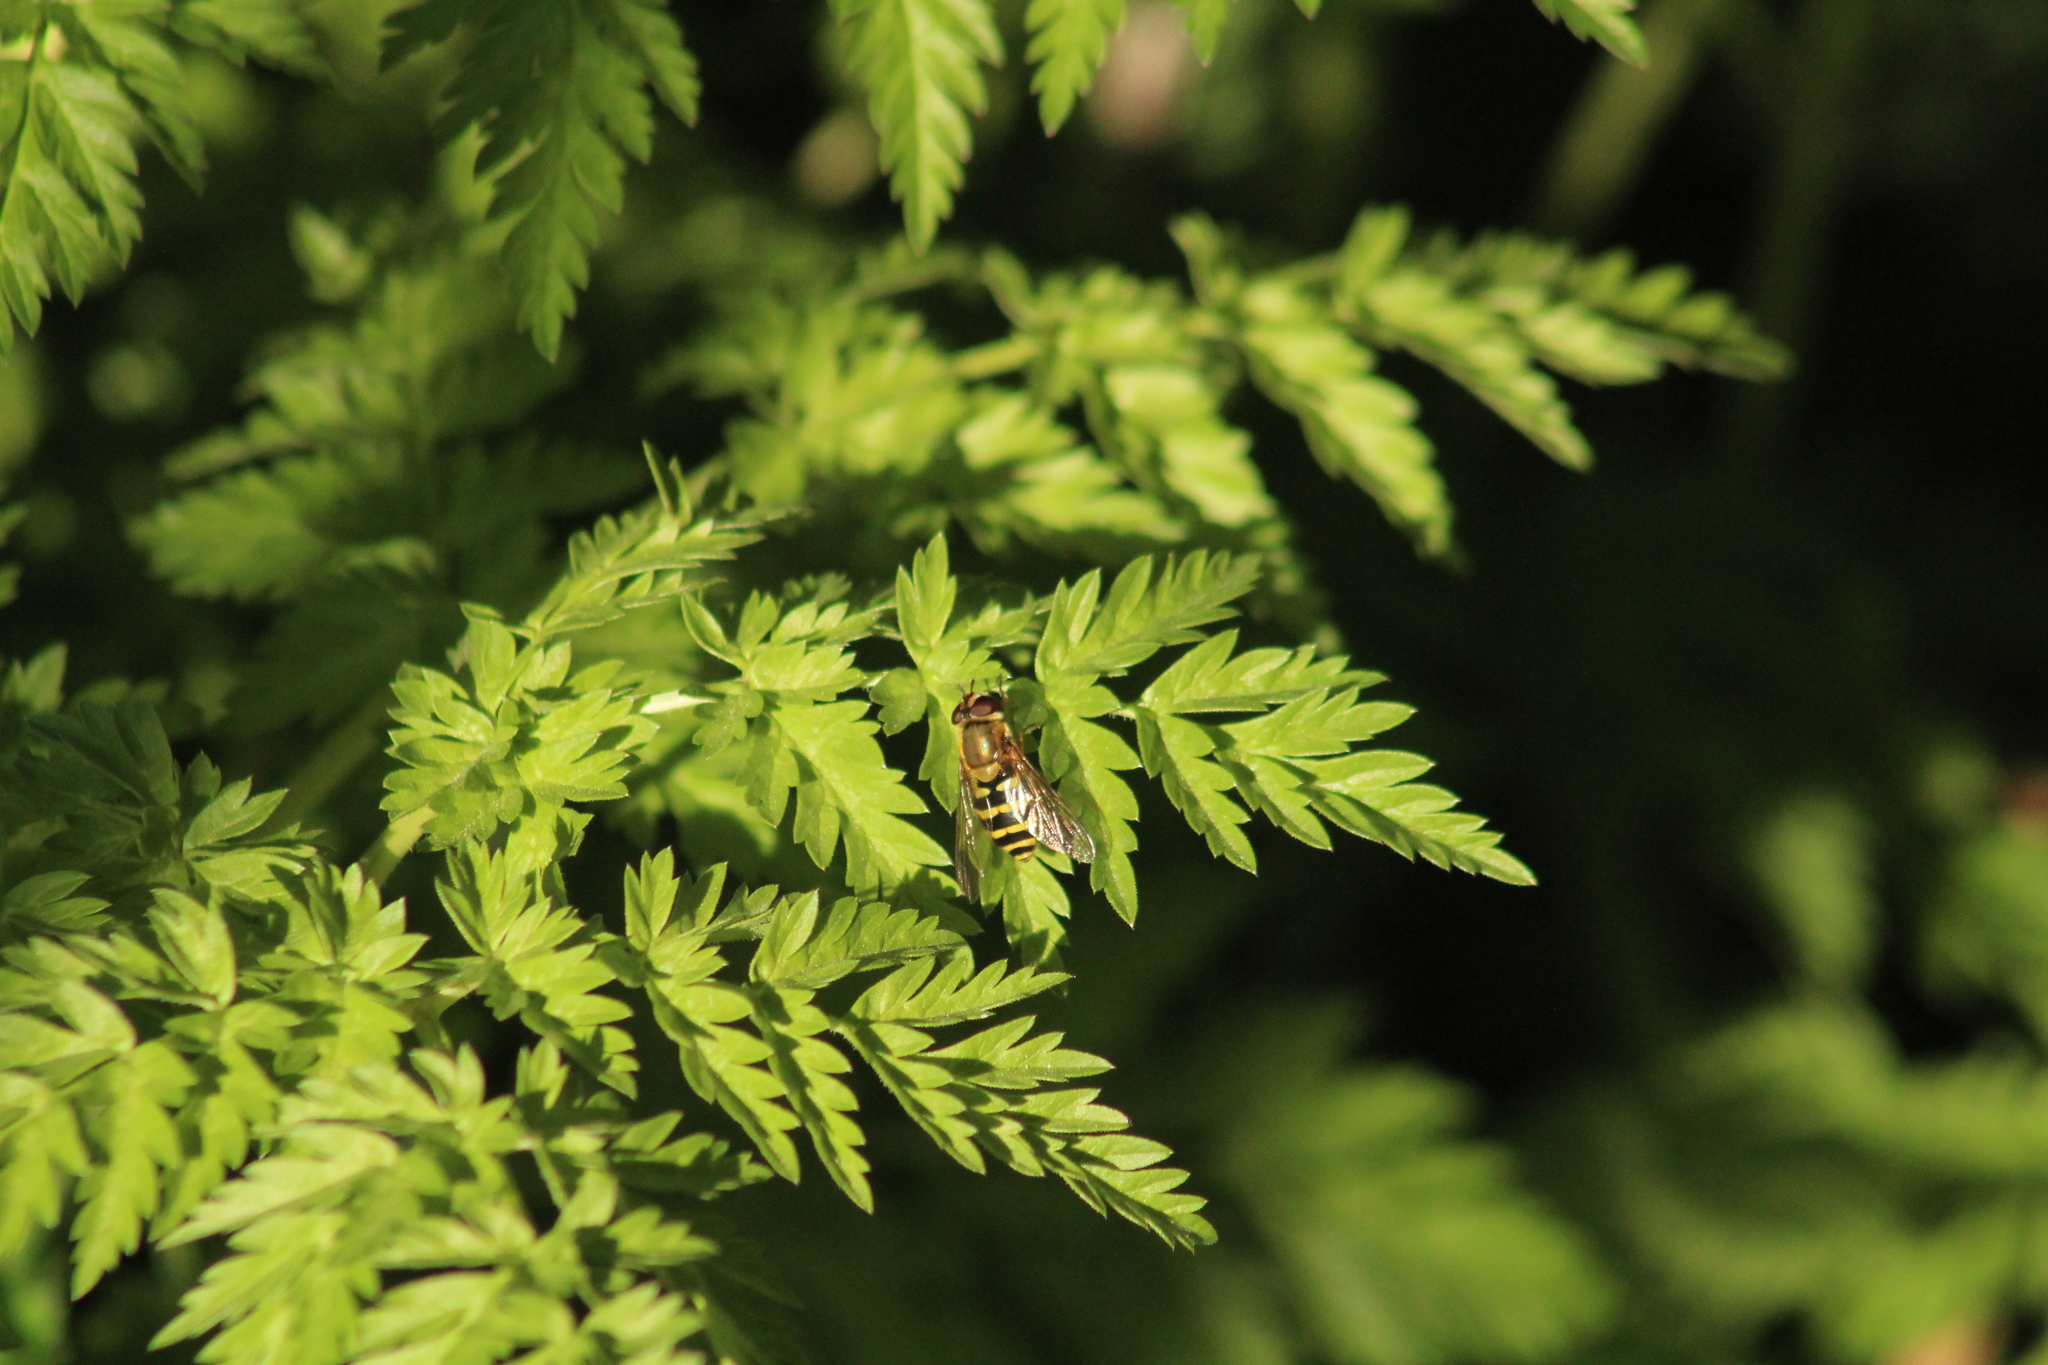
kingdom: Animalia
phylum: Arthropoda
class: Insecta
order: Diptera
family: Syrphidae
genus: Syrphus
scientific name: Syrphus
